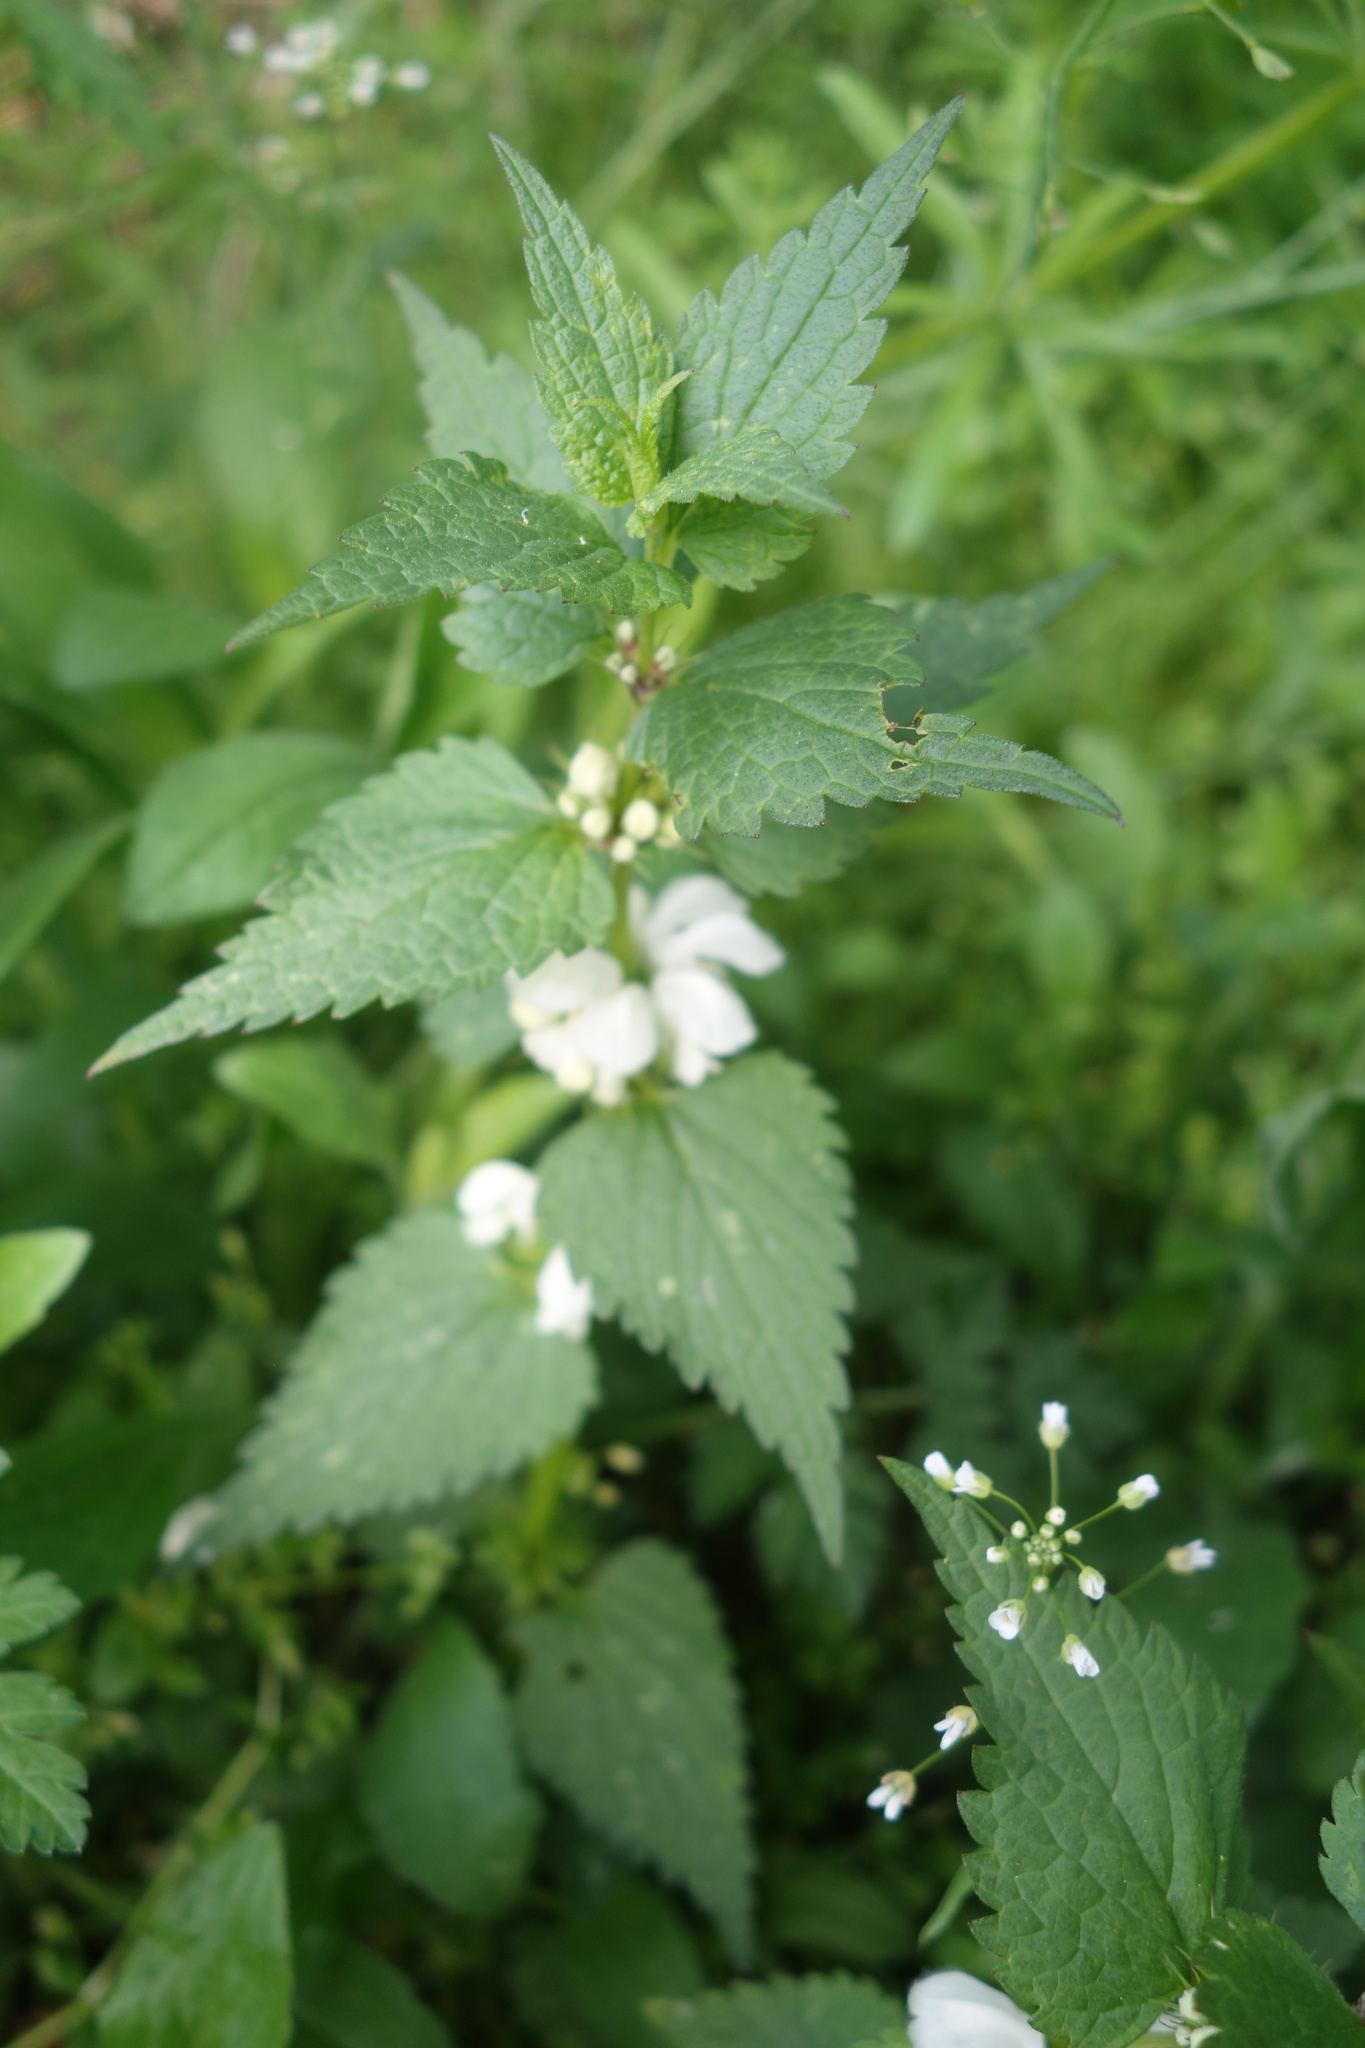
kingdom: Plantae
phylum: Tracheophyta
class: Magnoliopsida
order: Lamiales
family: Lamiaceae
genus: Lamium
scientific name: Lamium album
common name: White dead-nettle
